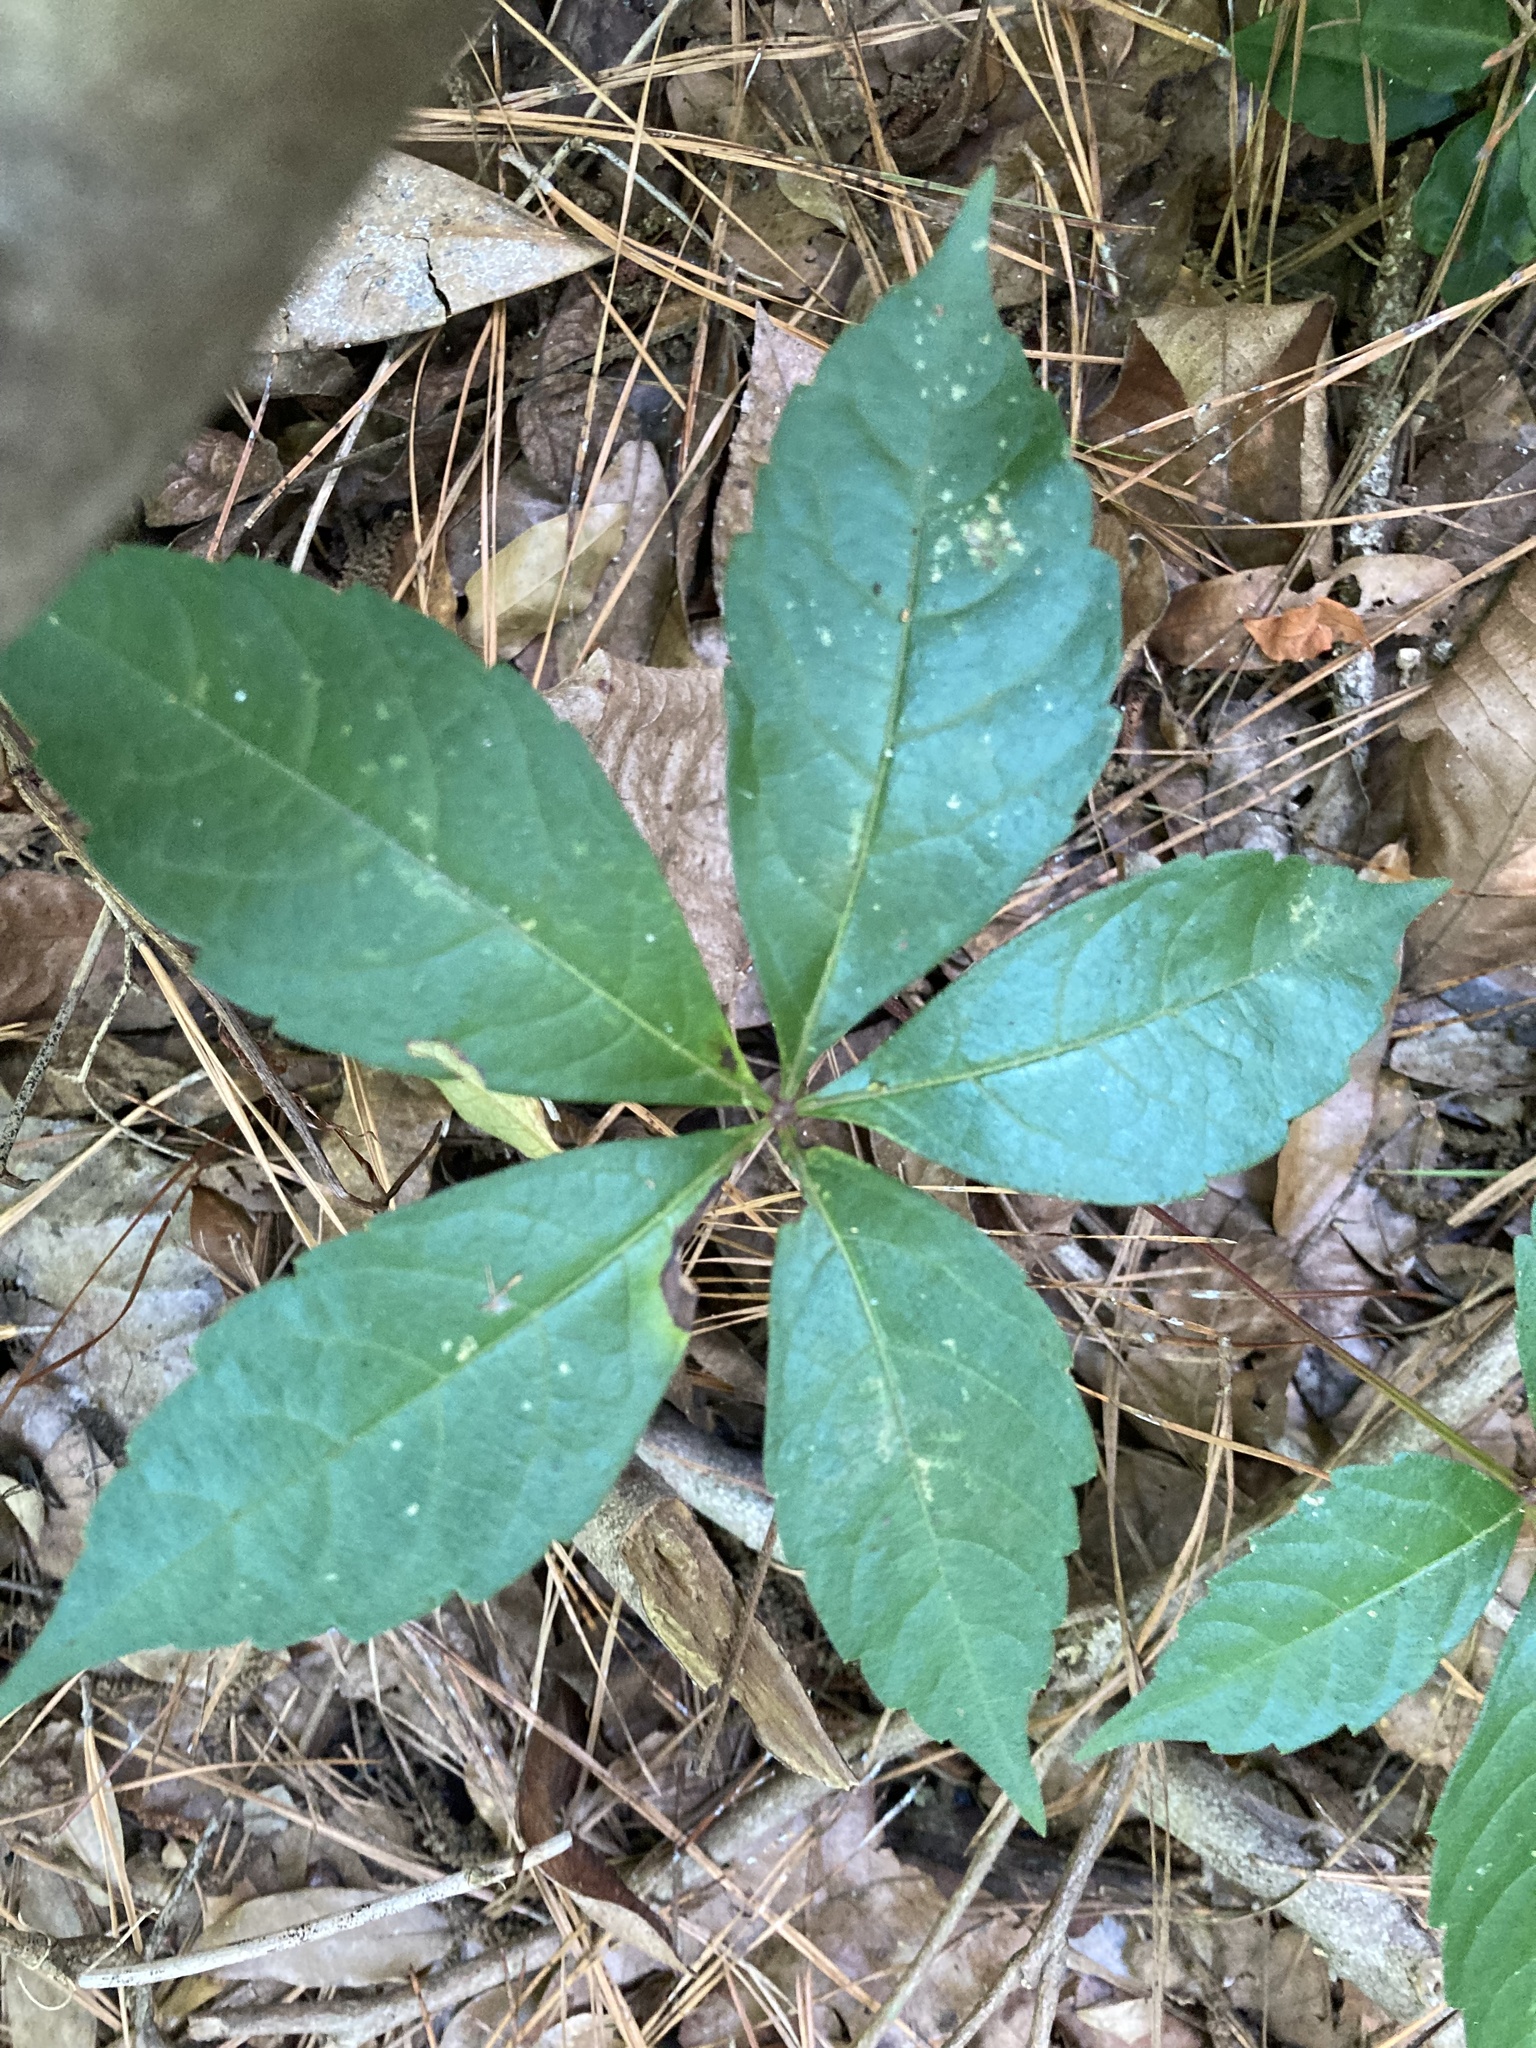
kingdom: Plantae
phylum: Tracheophyta
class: Magnoliopsida
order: Vitales
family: Vitaceae
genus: Parthenocissus
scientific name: Parthenocissus quinquefolia
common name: Virginia-creeper
